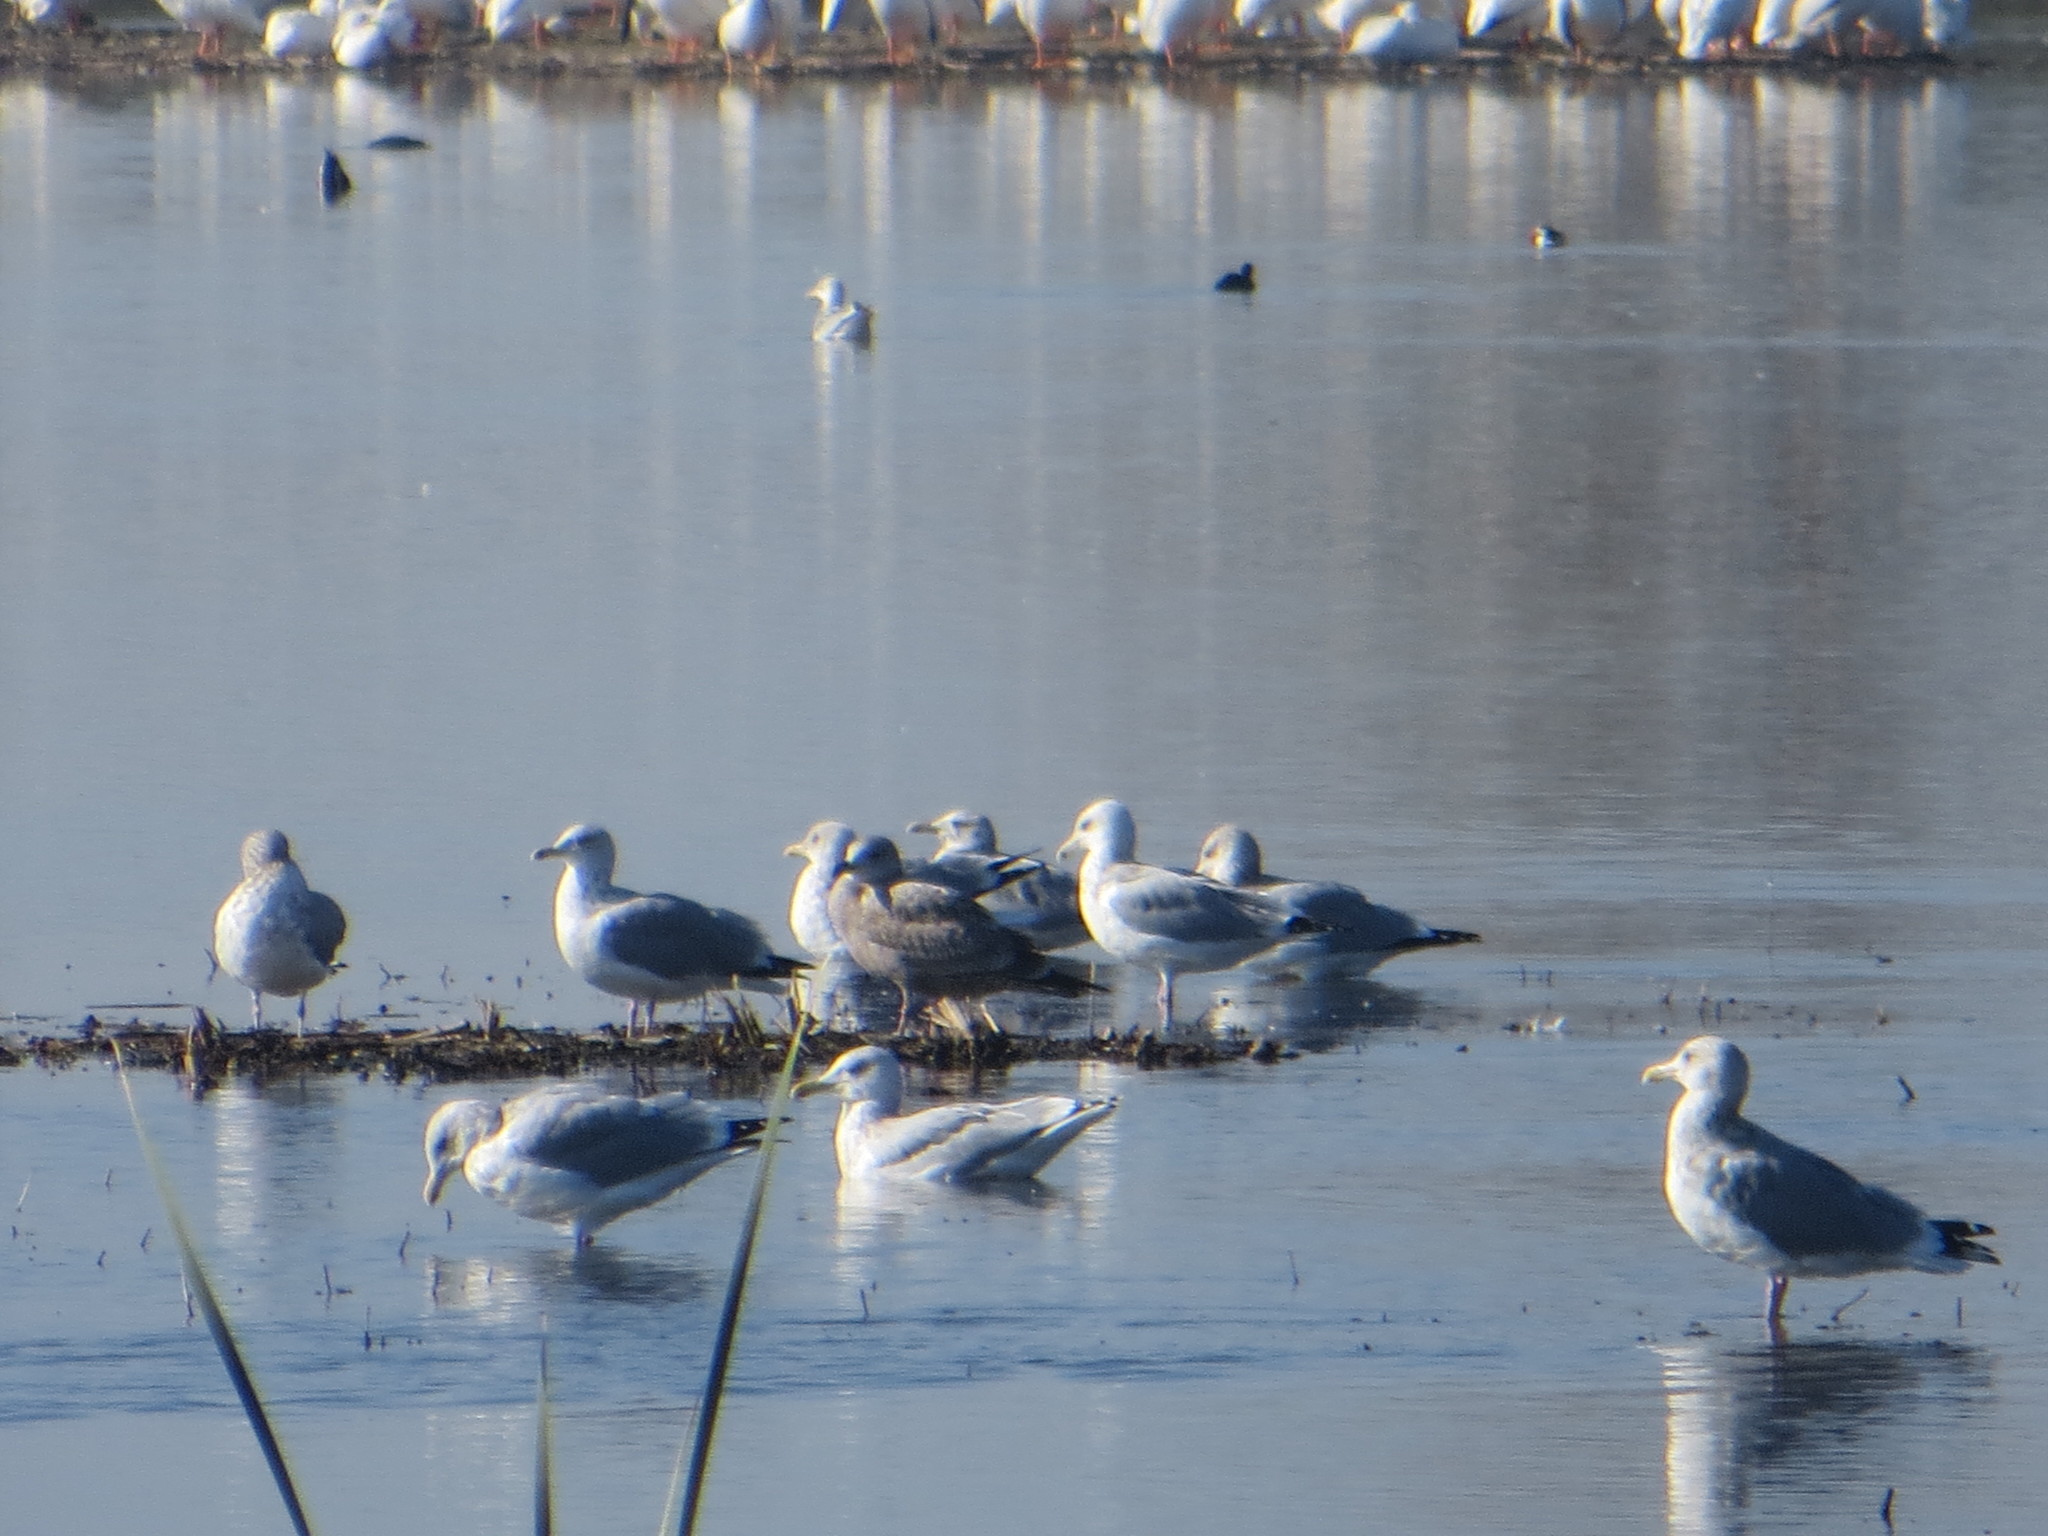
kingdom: Animalia
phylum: Chordata
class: Aves
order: Charadriiformes
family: Laridae
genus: Larus
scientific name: Larus californicus
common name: California gull
